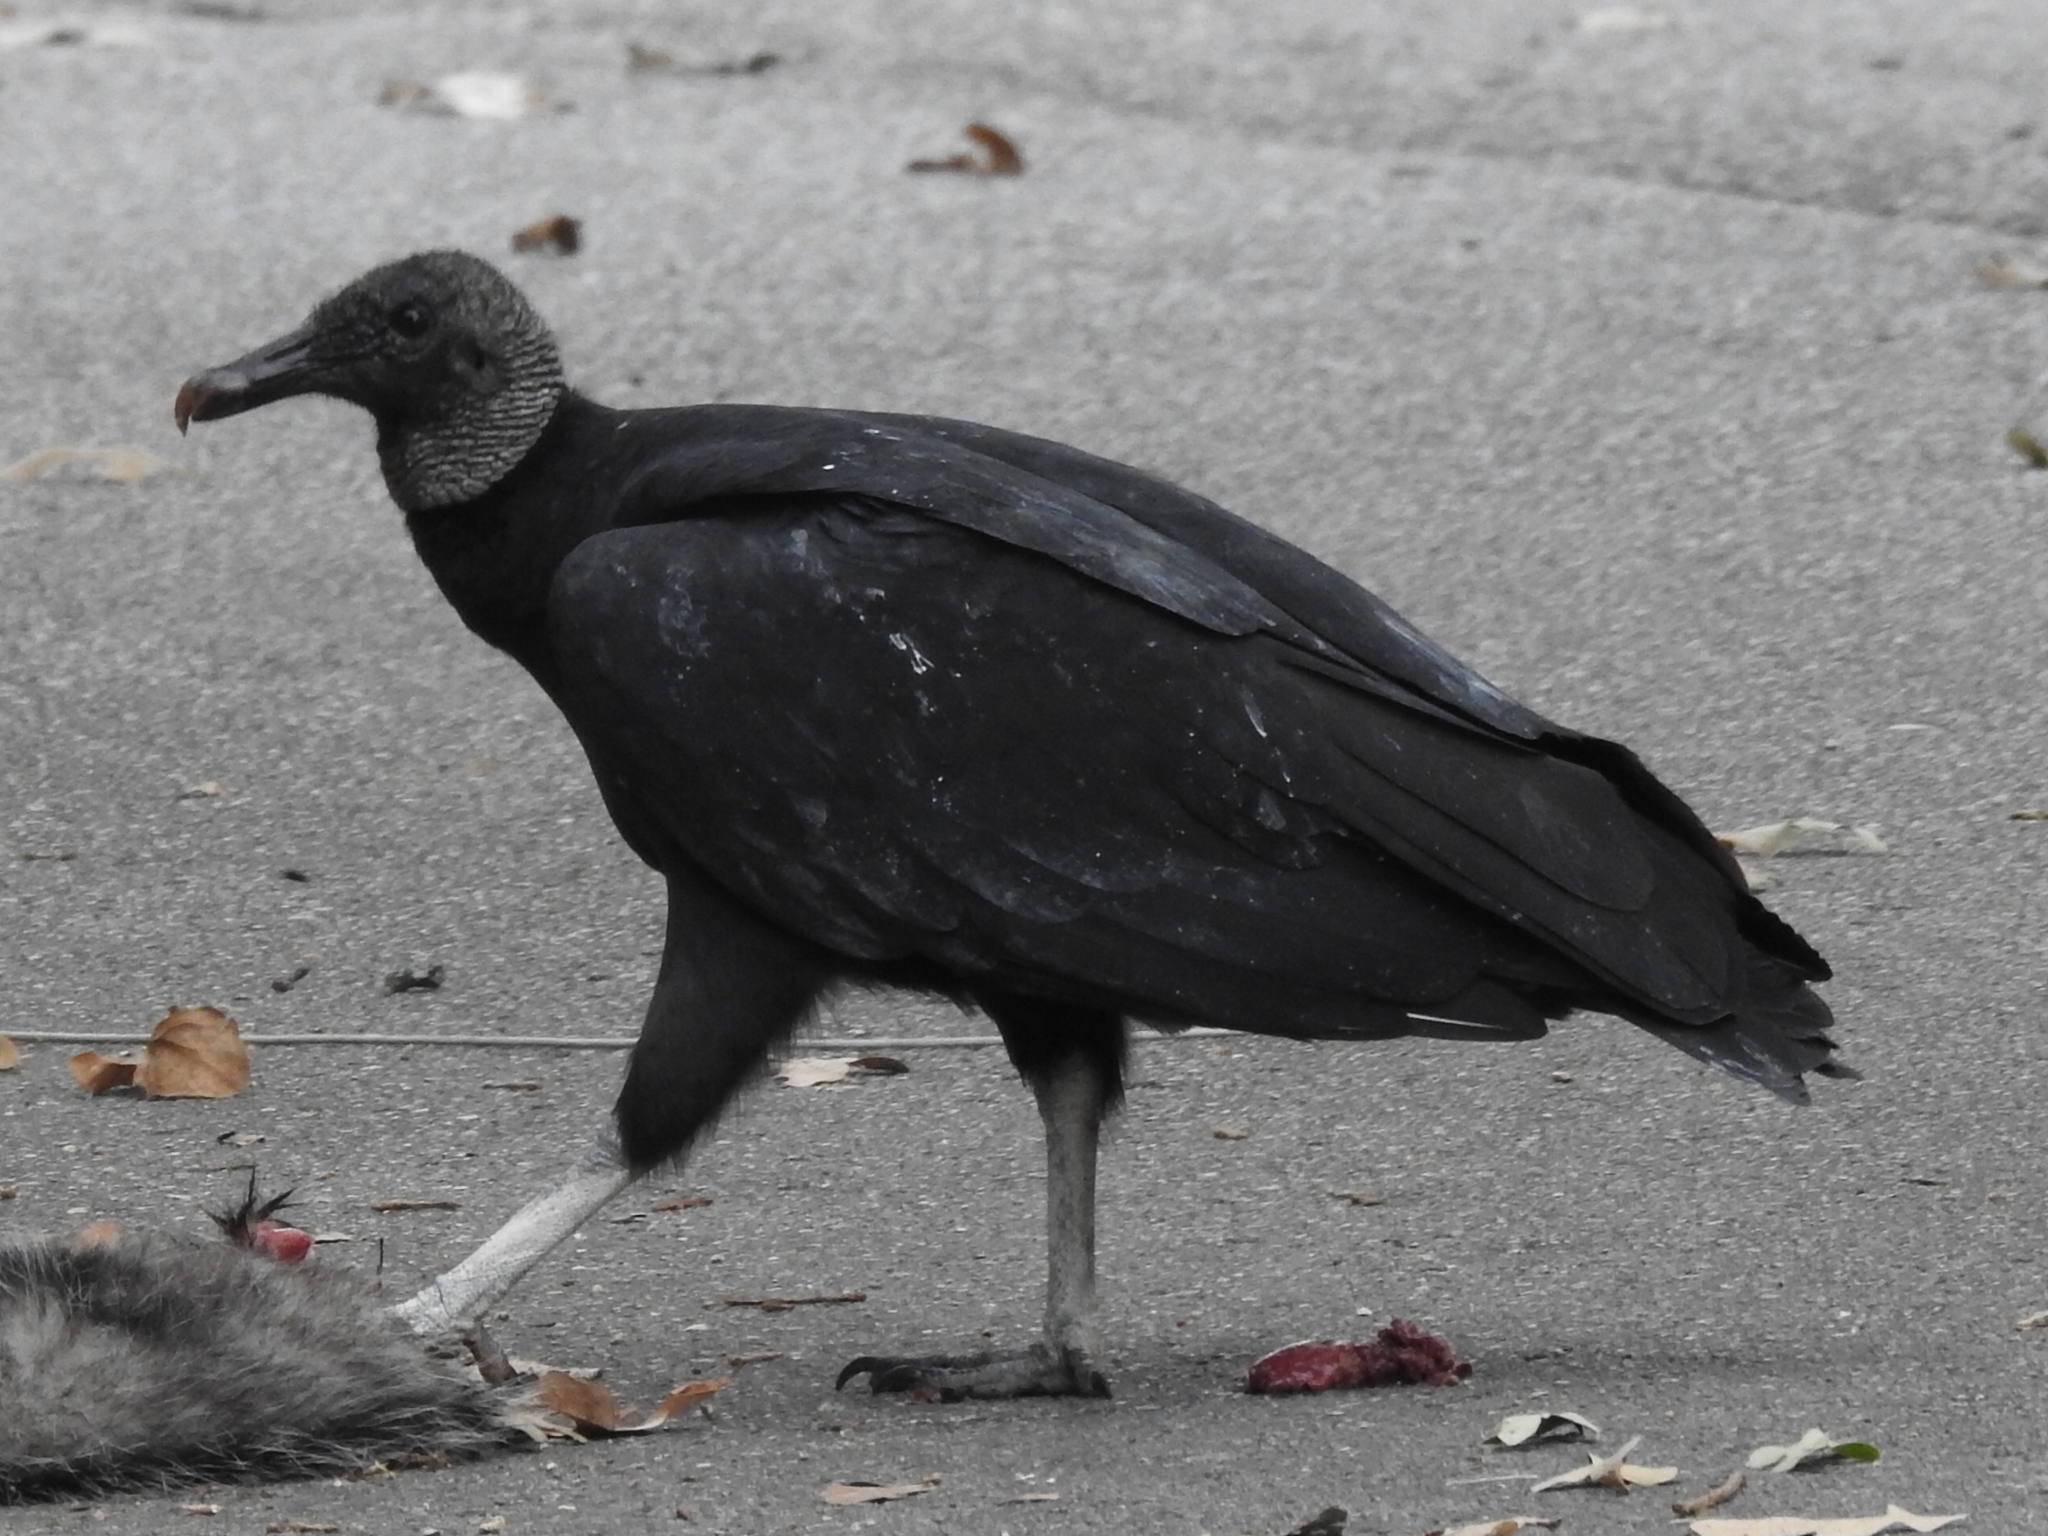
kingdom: Animalia
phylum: Chordata
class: Aves
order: Accipitriformes
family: Cathartidae
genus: Coragyps
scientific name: Coragyps atratus
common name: Black vulture
